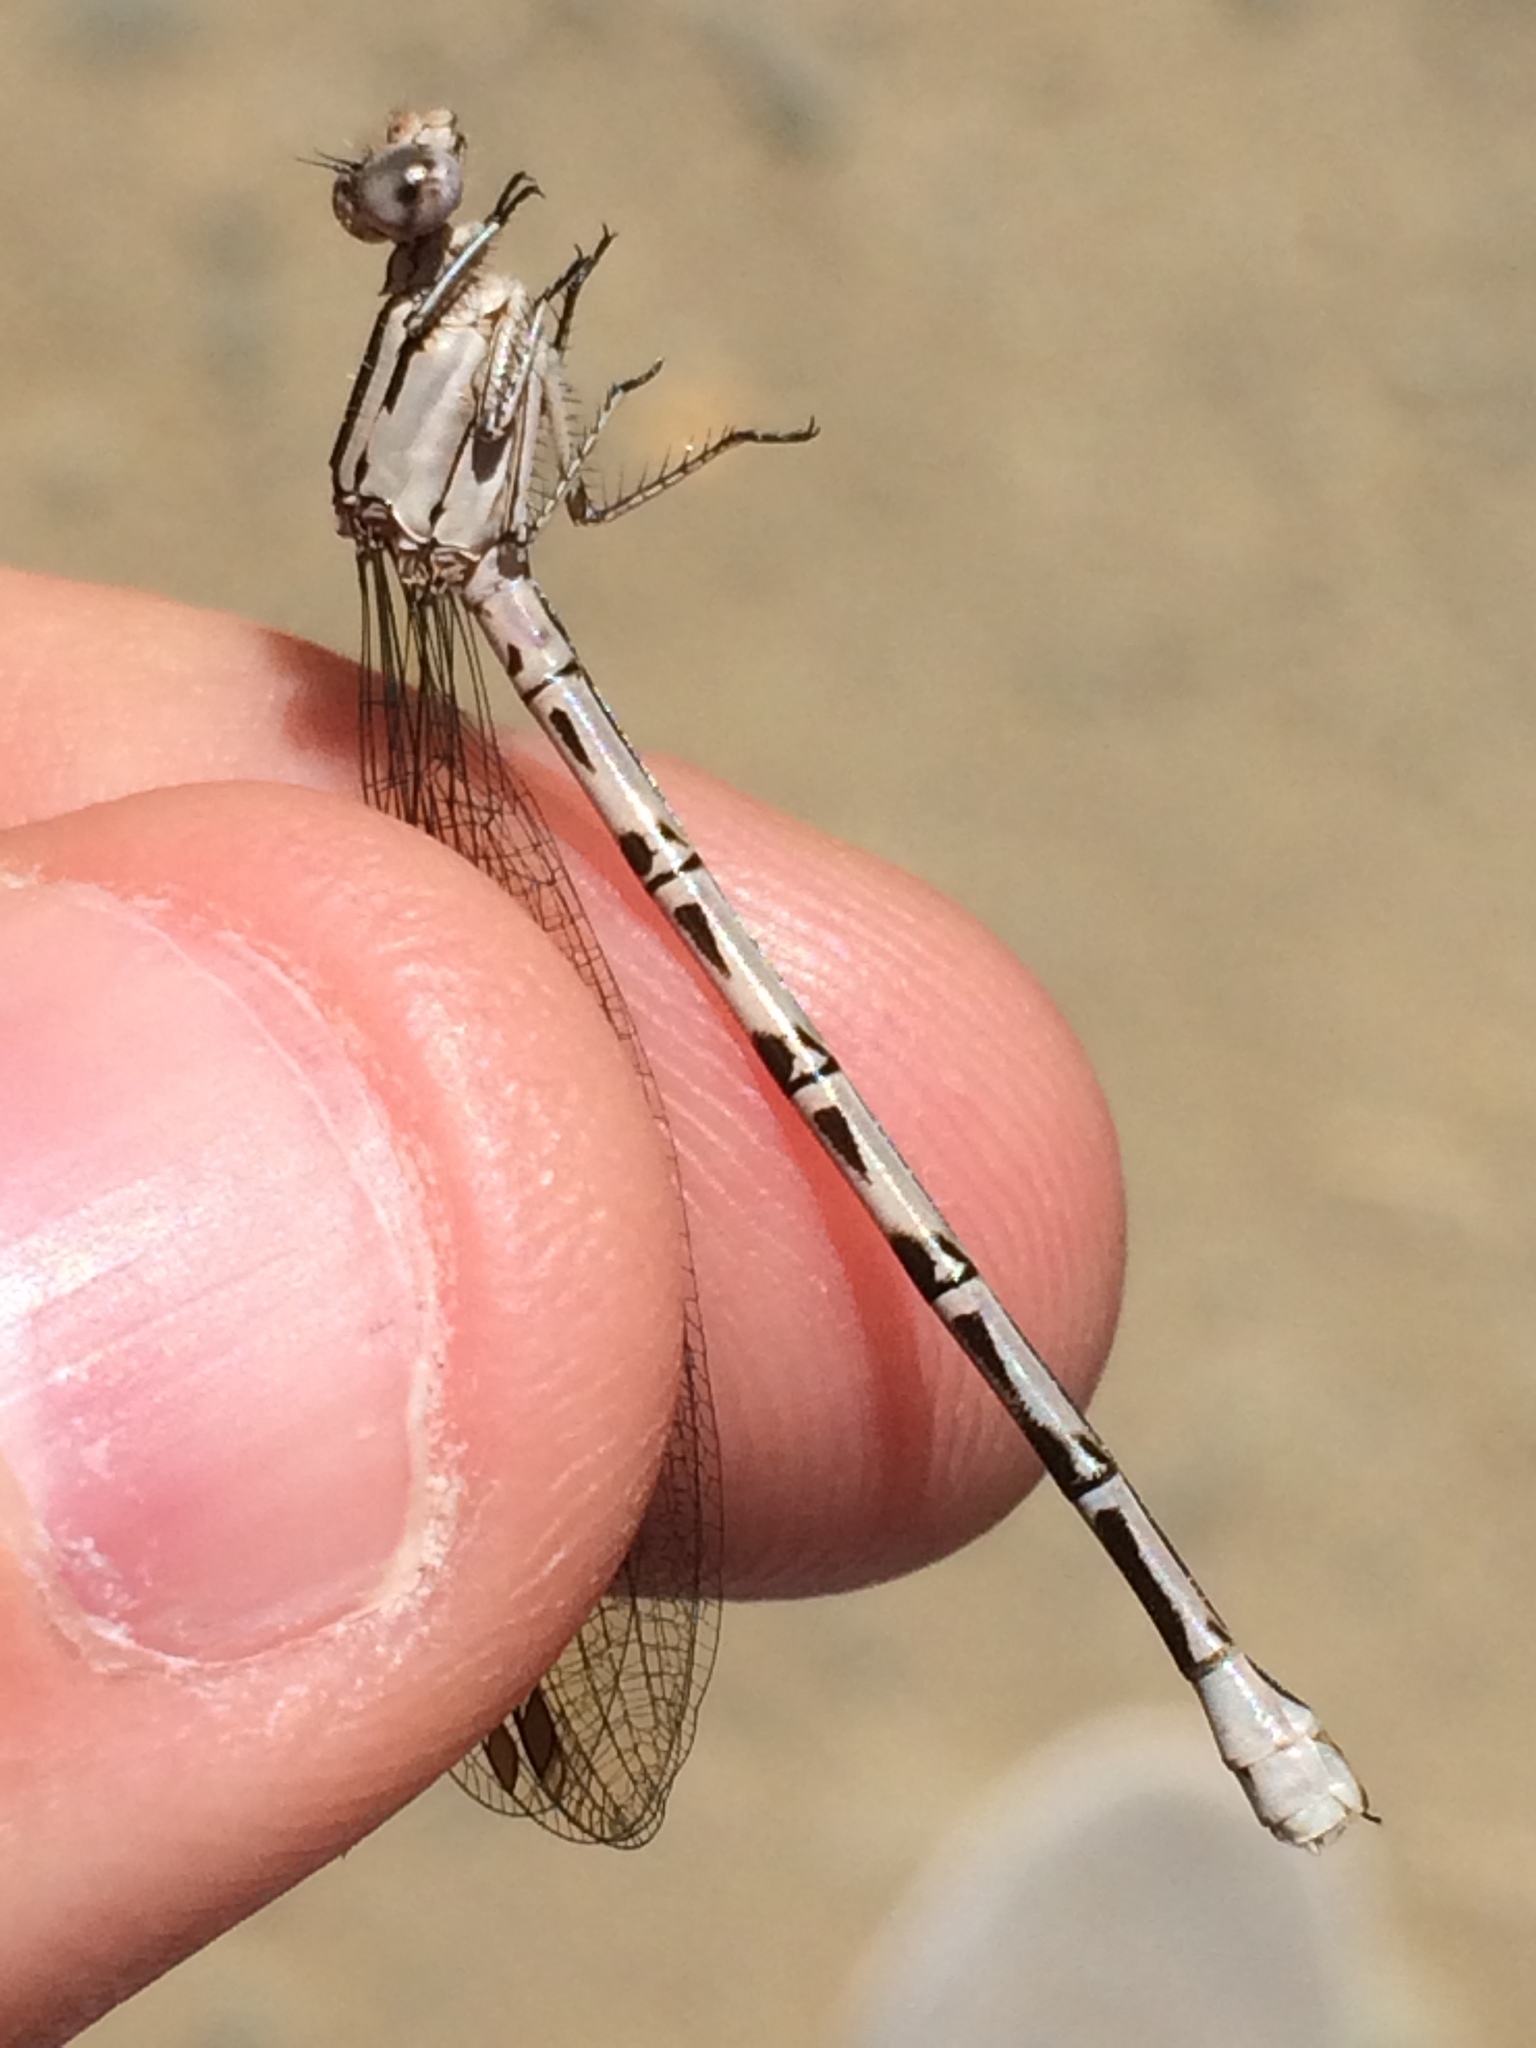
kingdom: Animalia
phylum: Arthropoda
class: Insecta
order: Odonata
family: Coenagrionidae
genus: Argia
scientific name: Argia vivida
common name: Vivid dancer
